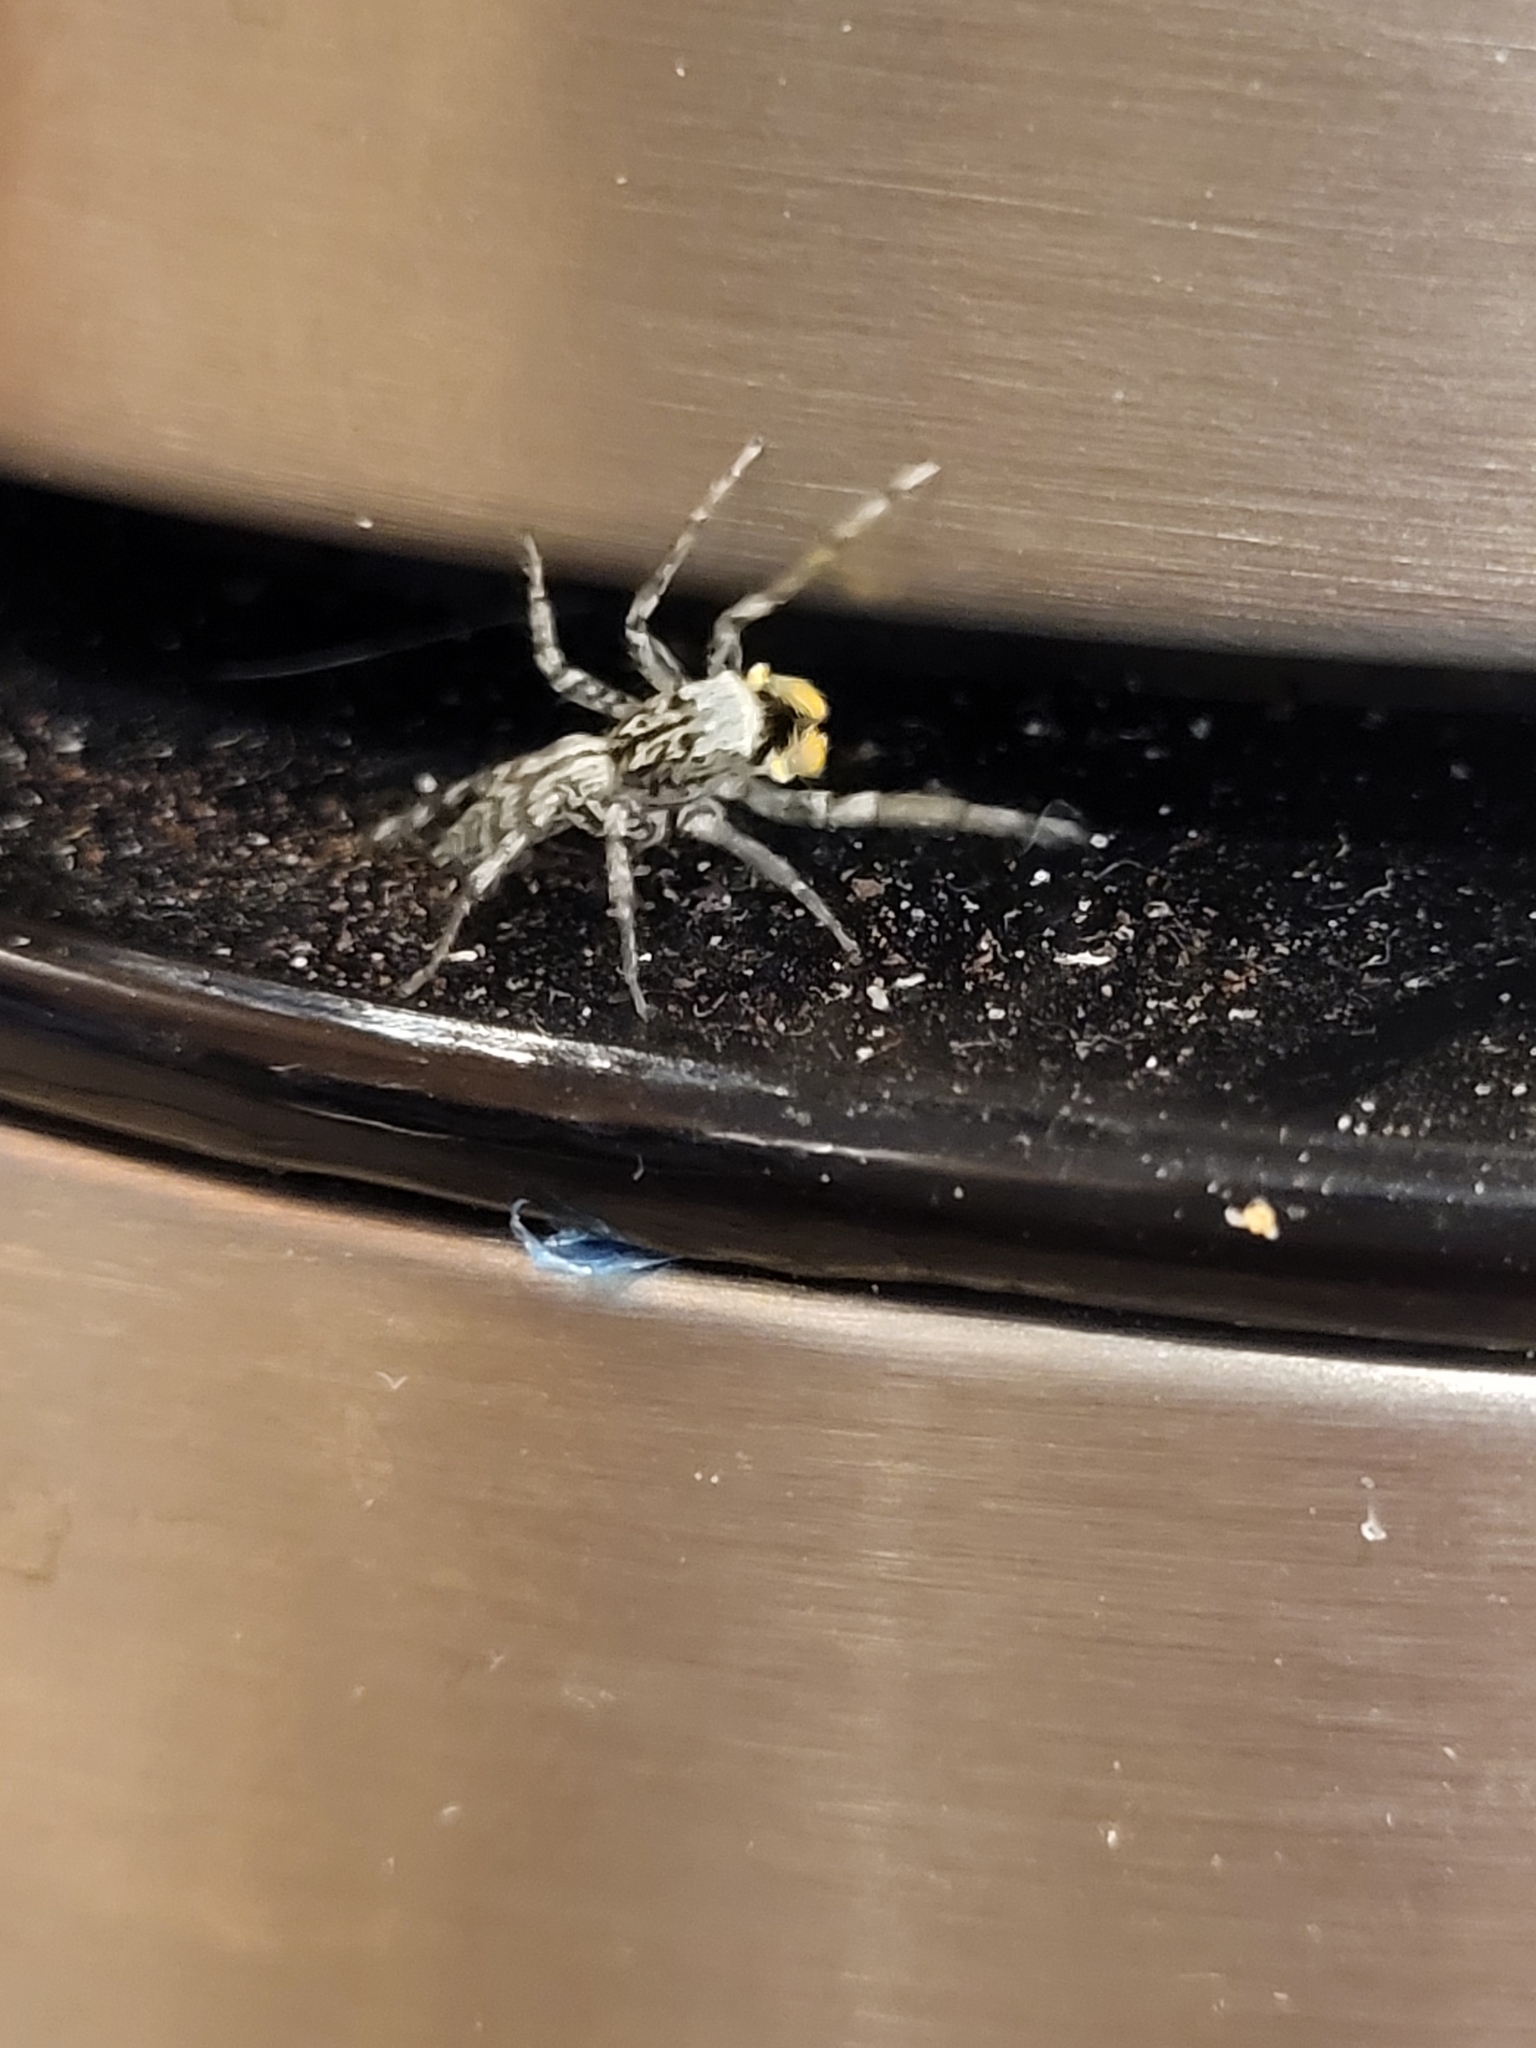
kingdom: Animalia
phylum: Arthropoda
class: Arachnida
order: Araneae
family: Salticidae
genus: Maevia
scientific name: Maevia inclemens
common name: Dimorphic jumper
